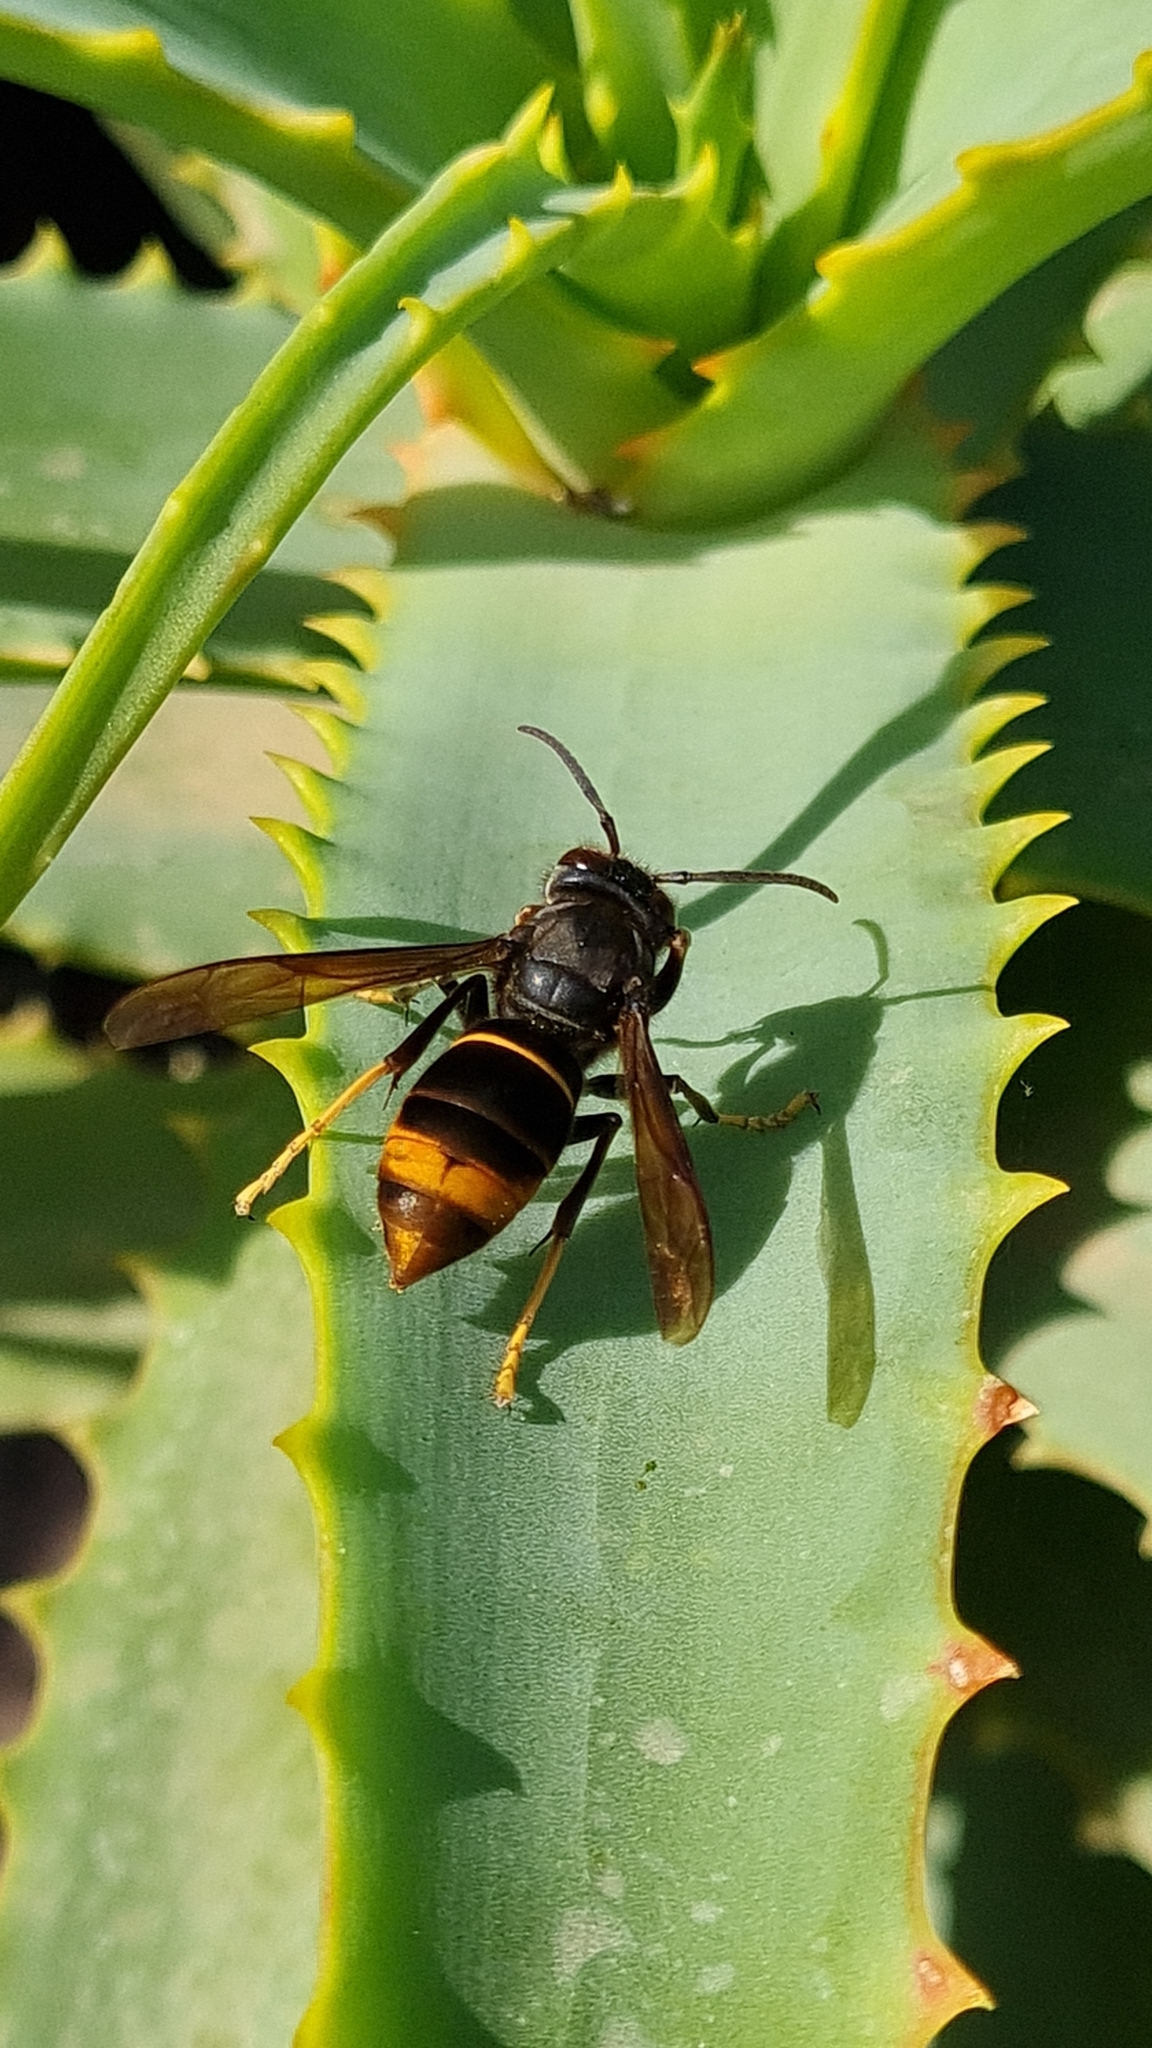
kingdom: Animalia
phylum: Arthropoda
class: Insecta
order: Hymenoptera
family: Vespidae
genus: Vespa
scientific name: Vespa velutina
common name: Asian hornet
